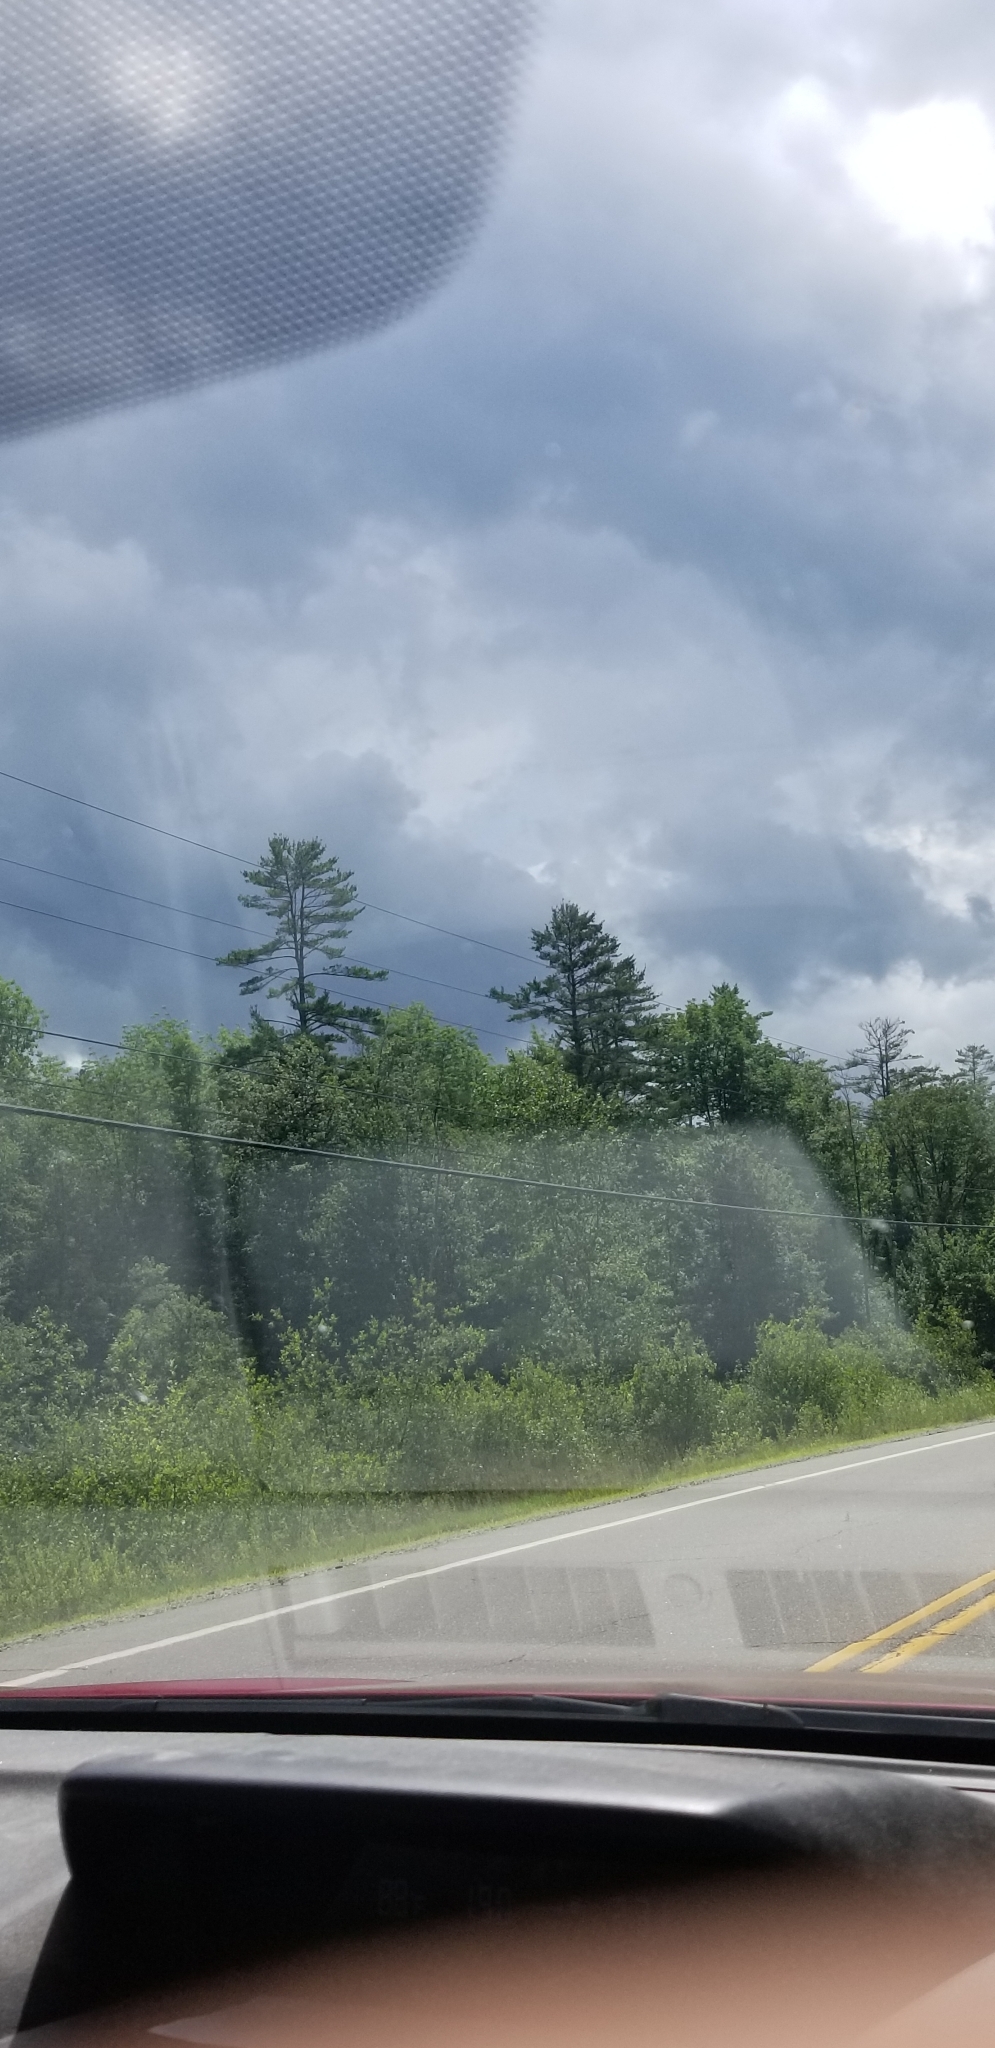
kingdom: Plantae
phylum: Tracheophyta
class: Pinopsida
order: Pinales
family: Pinaceae
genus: Pinus
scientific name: Pinus strobus
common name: Weymouth pine
